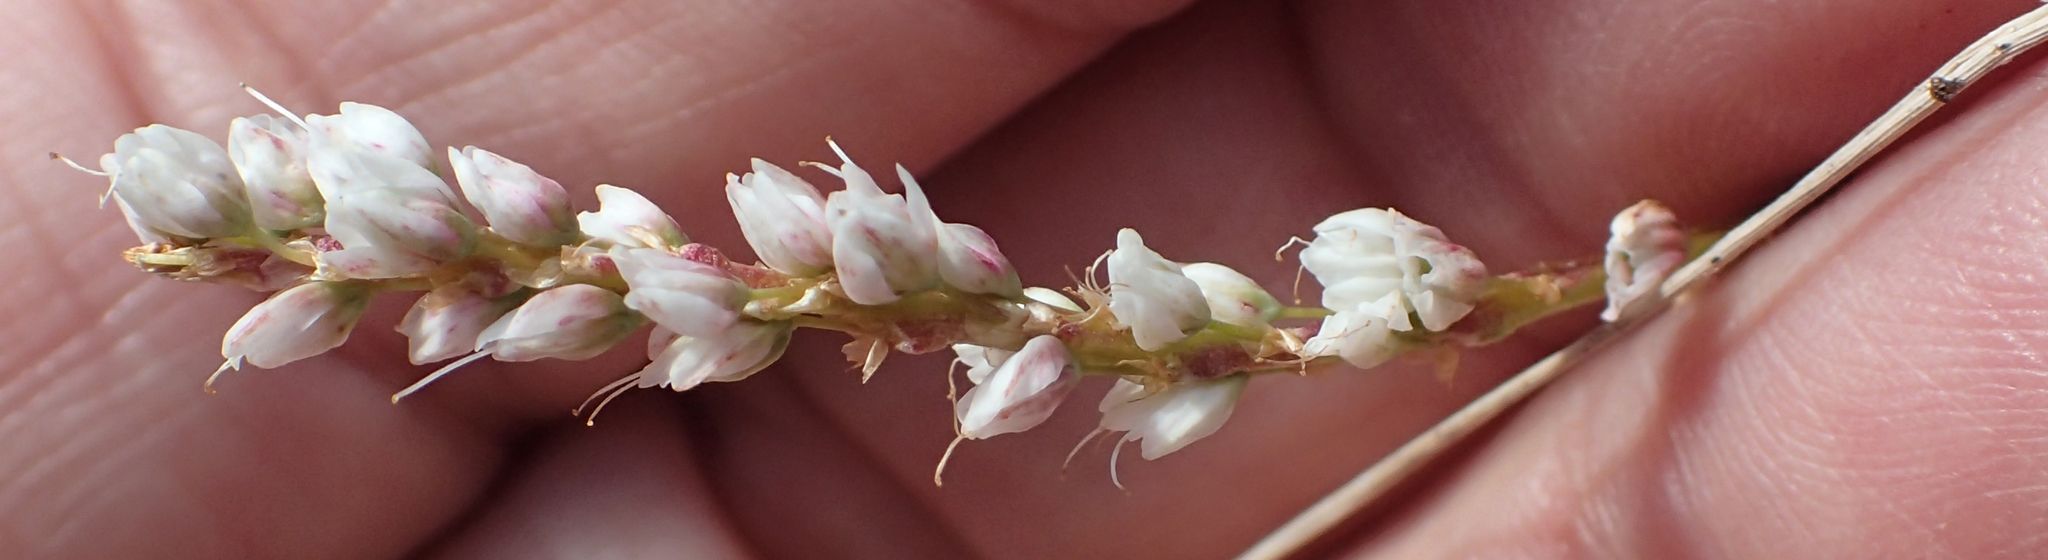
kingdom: Plantae
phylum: Tracheophyta
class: Magnoliopsida
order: Caryophyllales
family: Polygonaceae
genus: Bistorta
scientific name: Bistorta vivipara
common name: Alpine bistort
